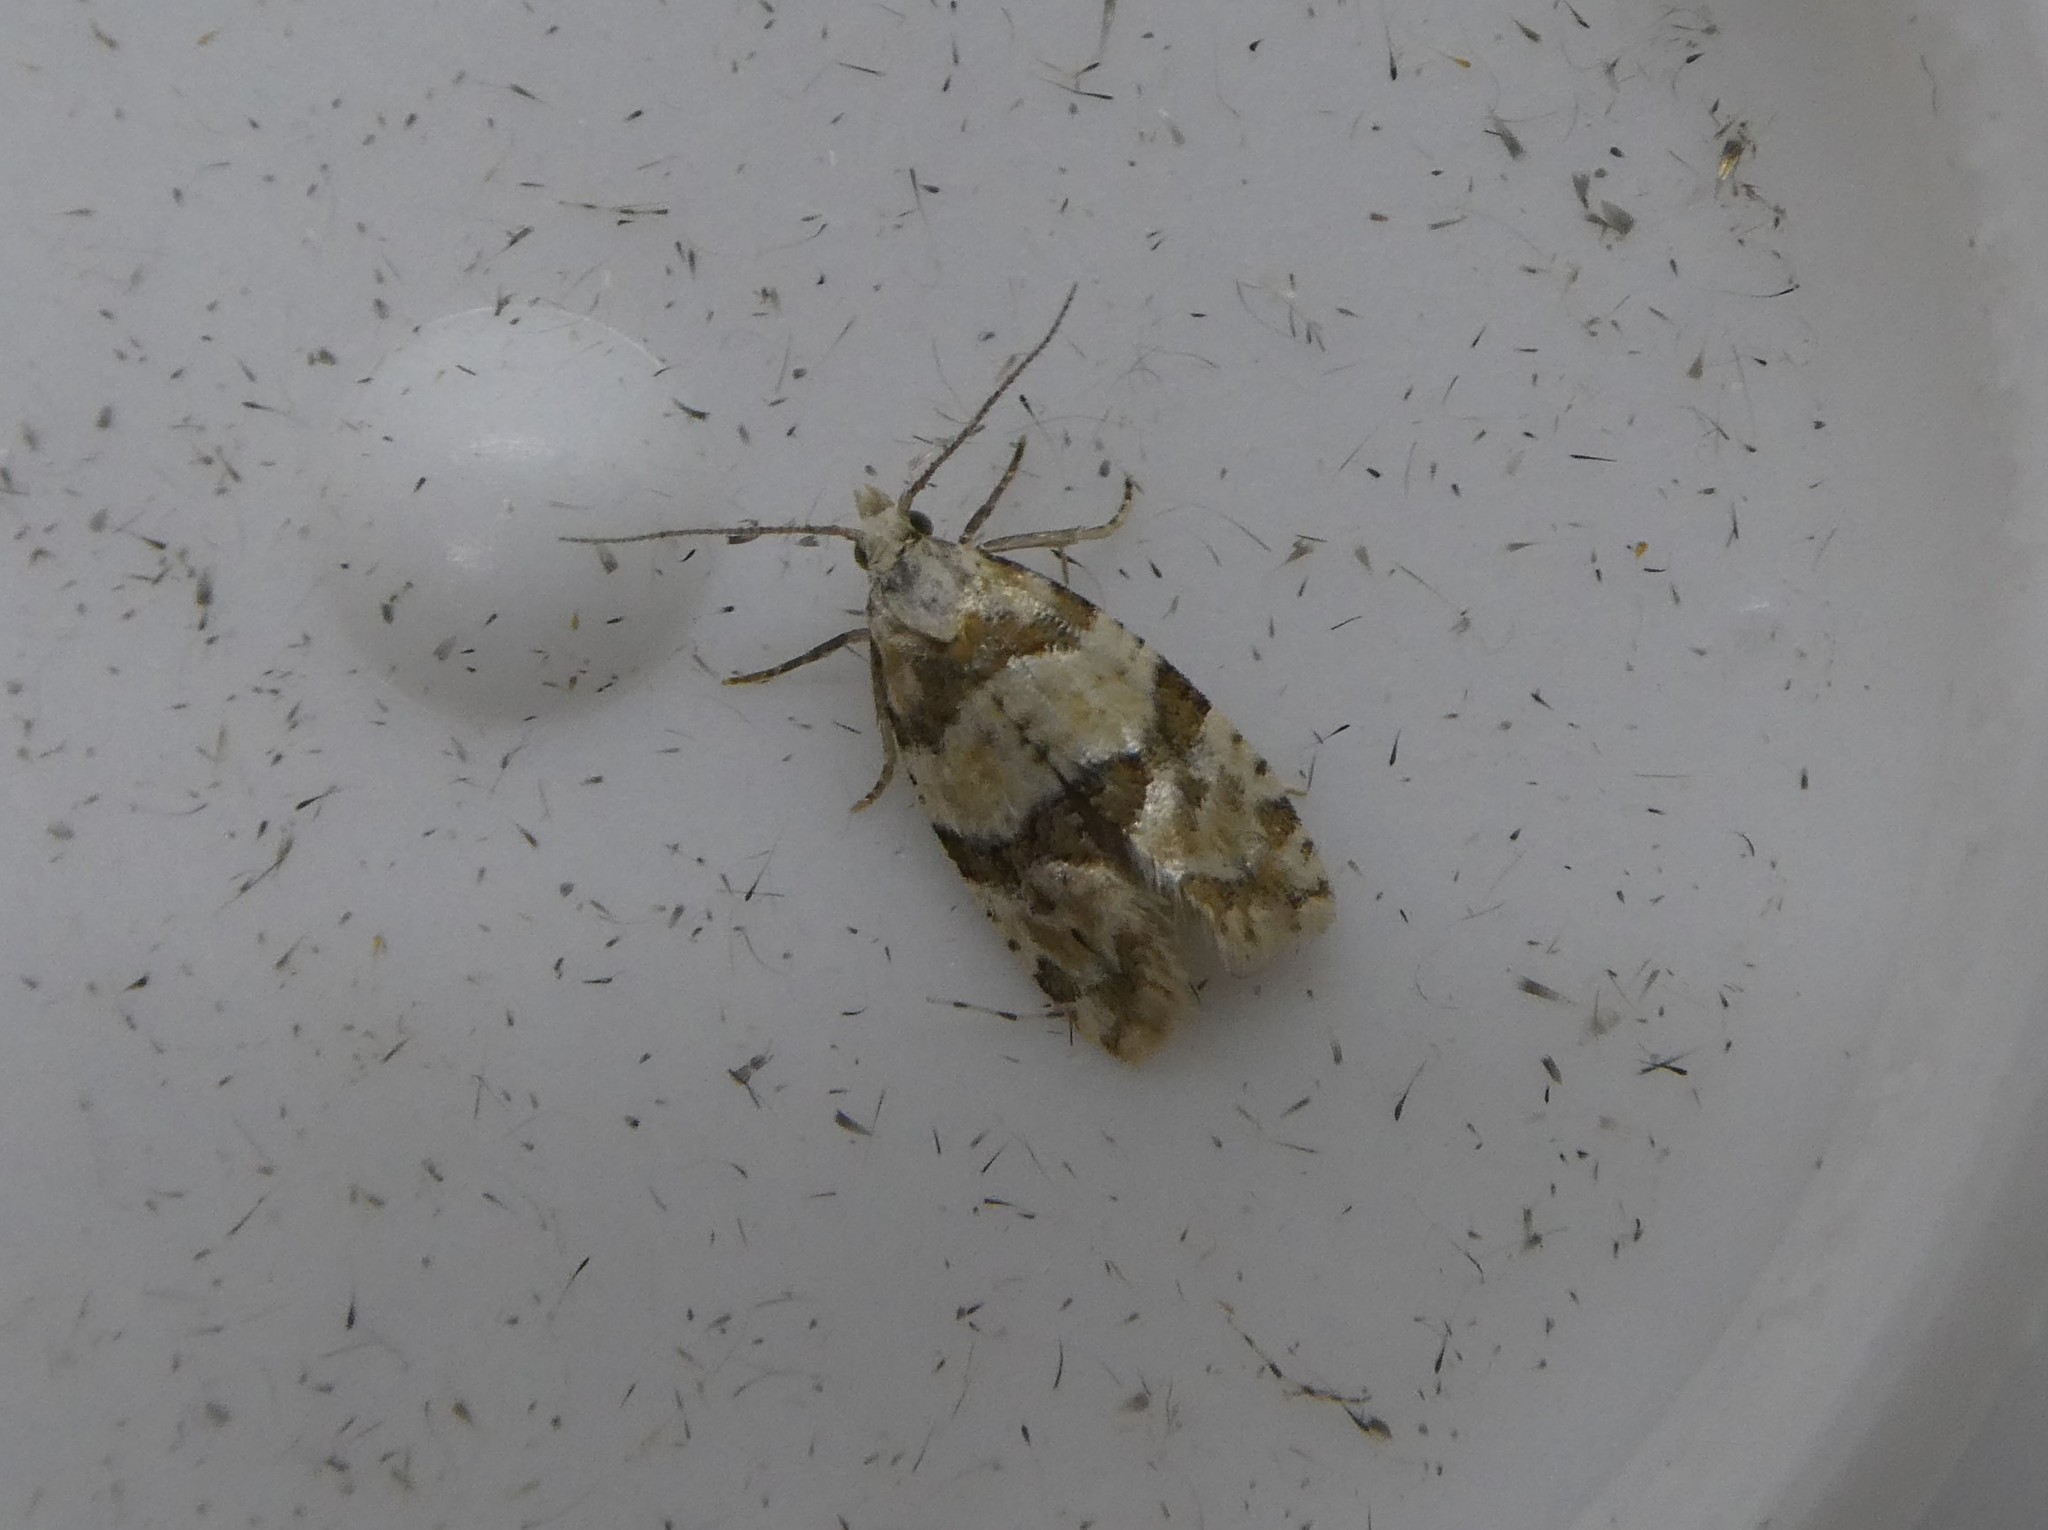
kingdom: Animalia
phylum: Arthropoda
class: Insecta
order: Lepidoptera
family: Tortricidae
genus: Aethes
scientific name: Aethes argentilimitana
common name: Silver-bordered aethes
